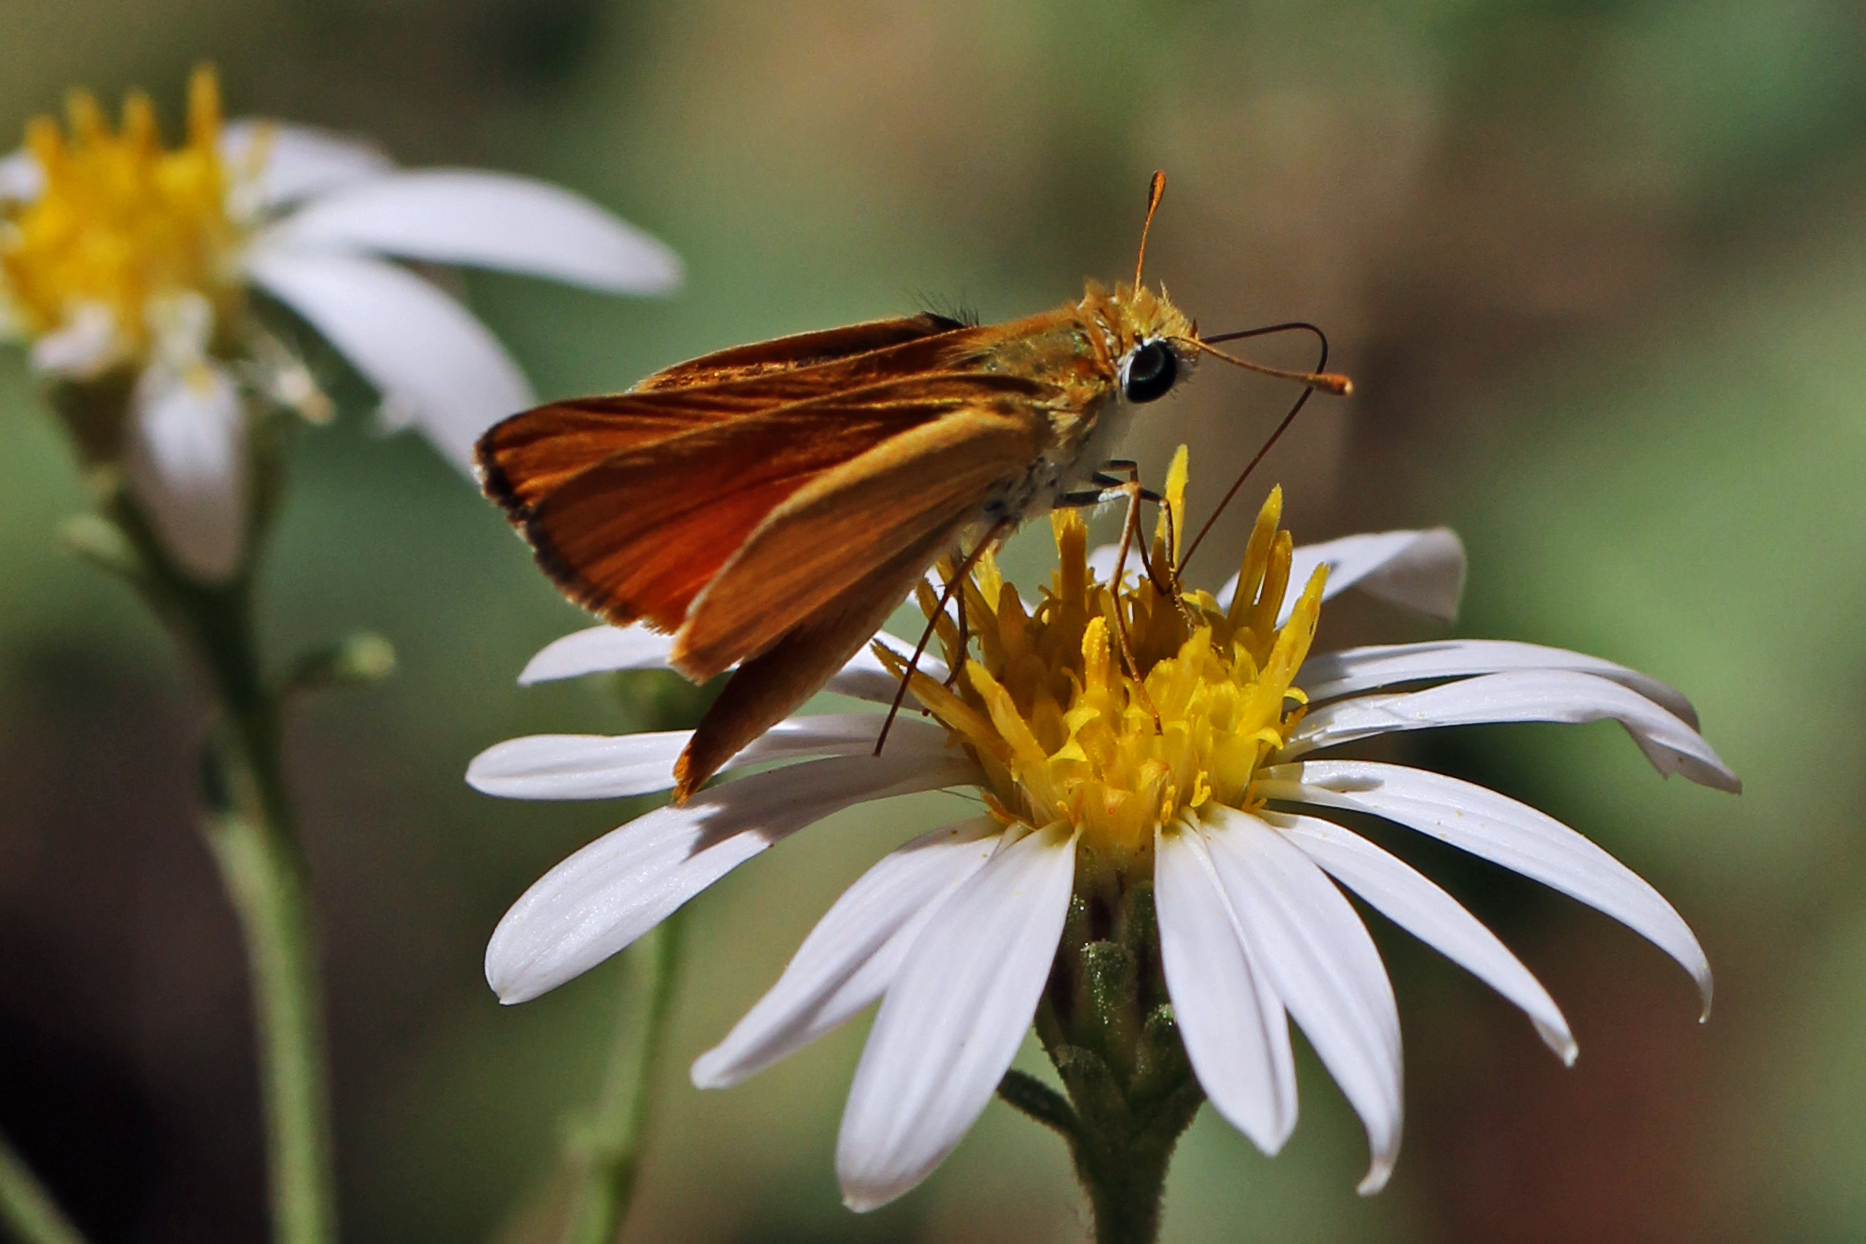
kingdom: Animalia
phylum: Arthropoda
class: Insecta
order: Lepidoptera
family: Hesperiidae
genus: Copaeodes
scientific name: Copaeodes aurantiaca
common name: Orange skipperling
